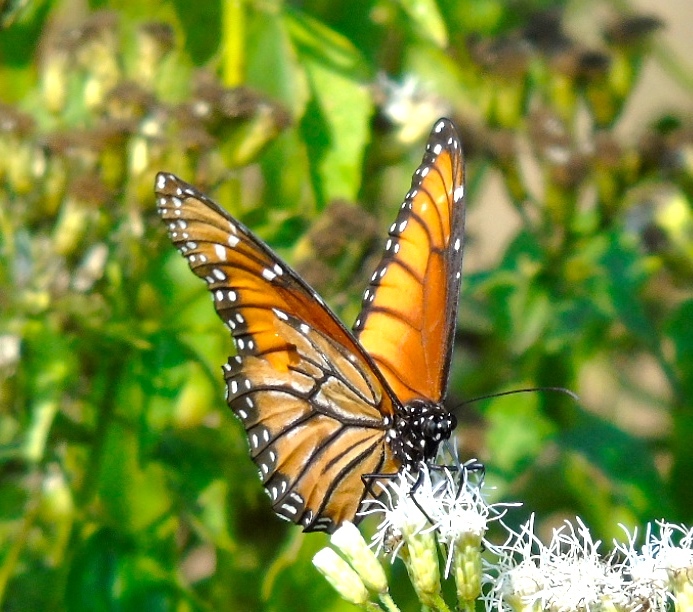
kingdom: Animalia
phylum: Arthropoda
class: Insecta
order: Lepidoptera
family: Nymphalidae
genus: Danaus
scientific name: Danaus eresimus
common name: Soldier
